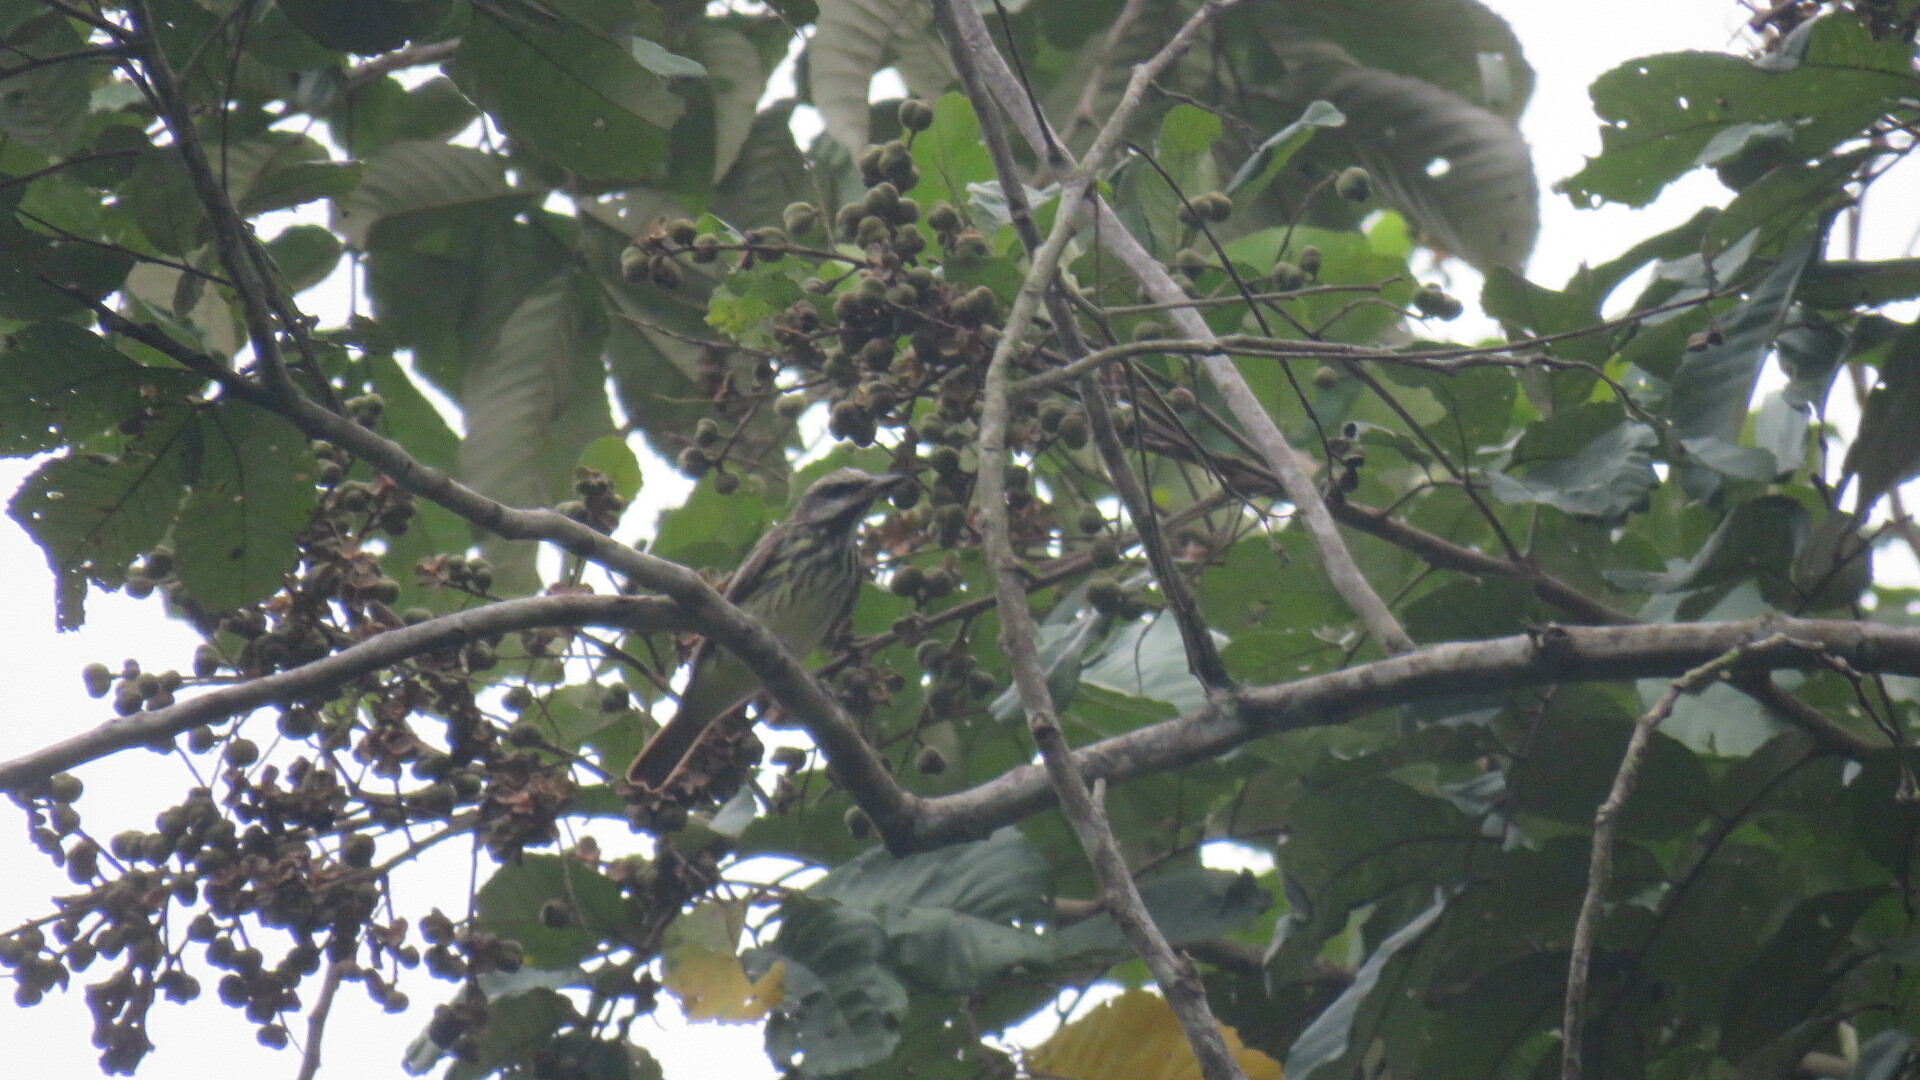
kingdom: Animalia
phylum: Chordata
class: Aves
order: Passeriformes
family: Tyrannidae
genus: Myiodynastes
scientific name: Myiodynastes luteiventris
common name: Sulphur-bellied flycatcher
